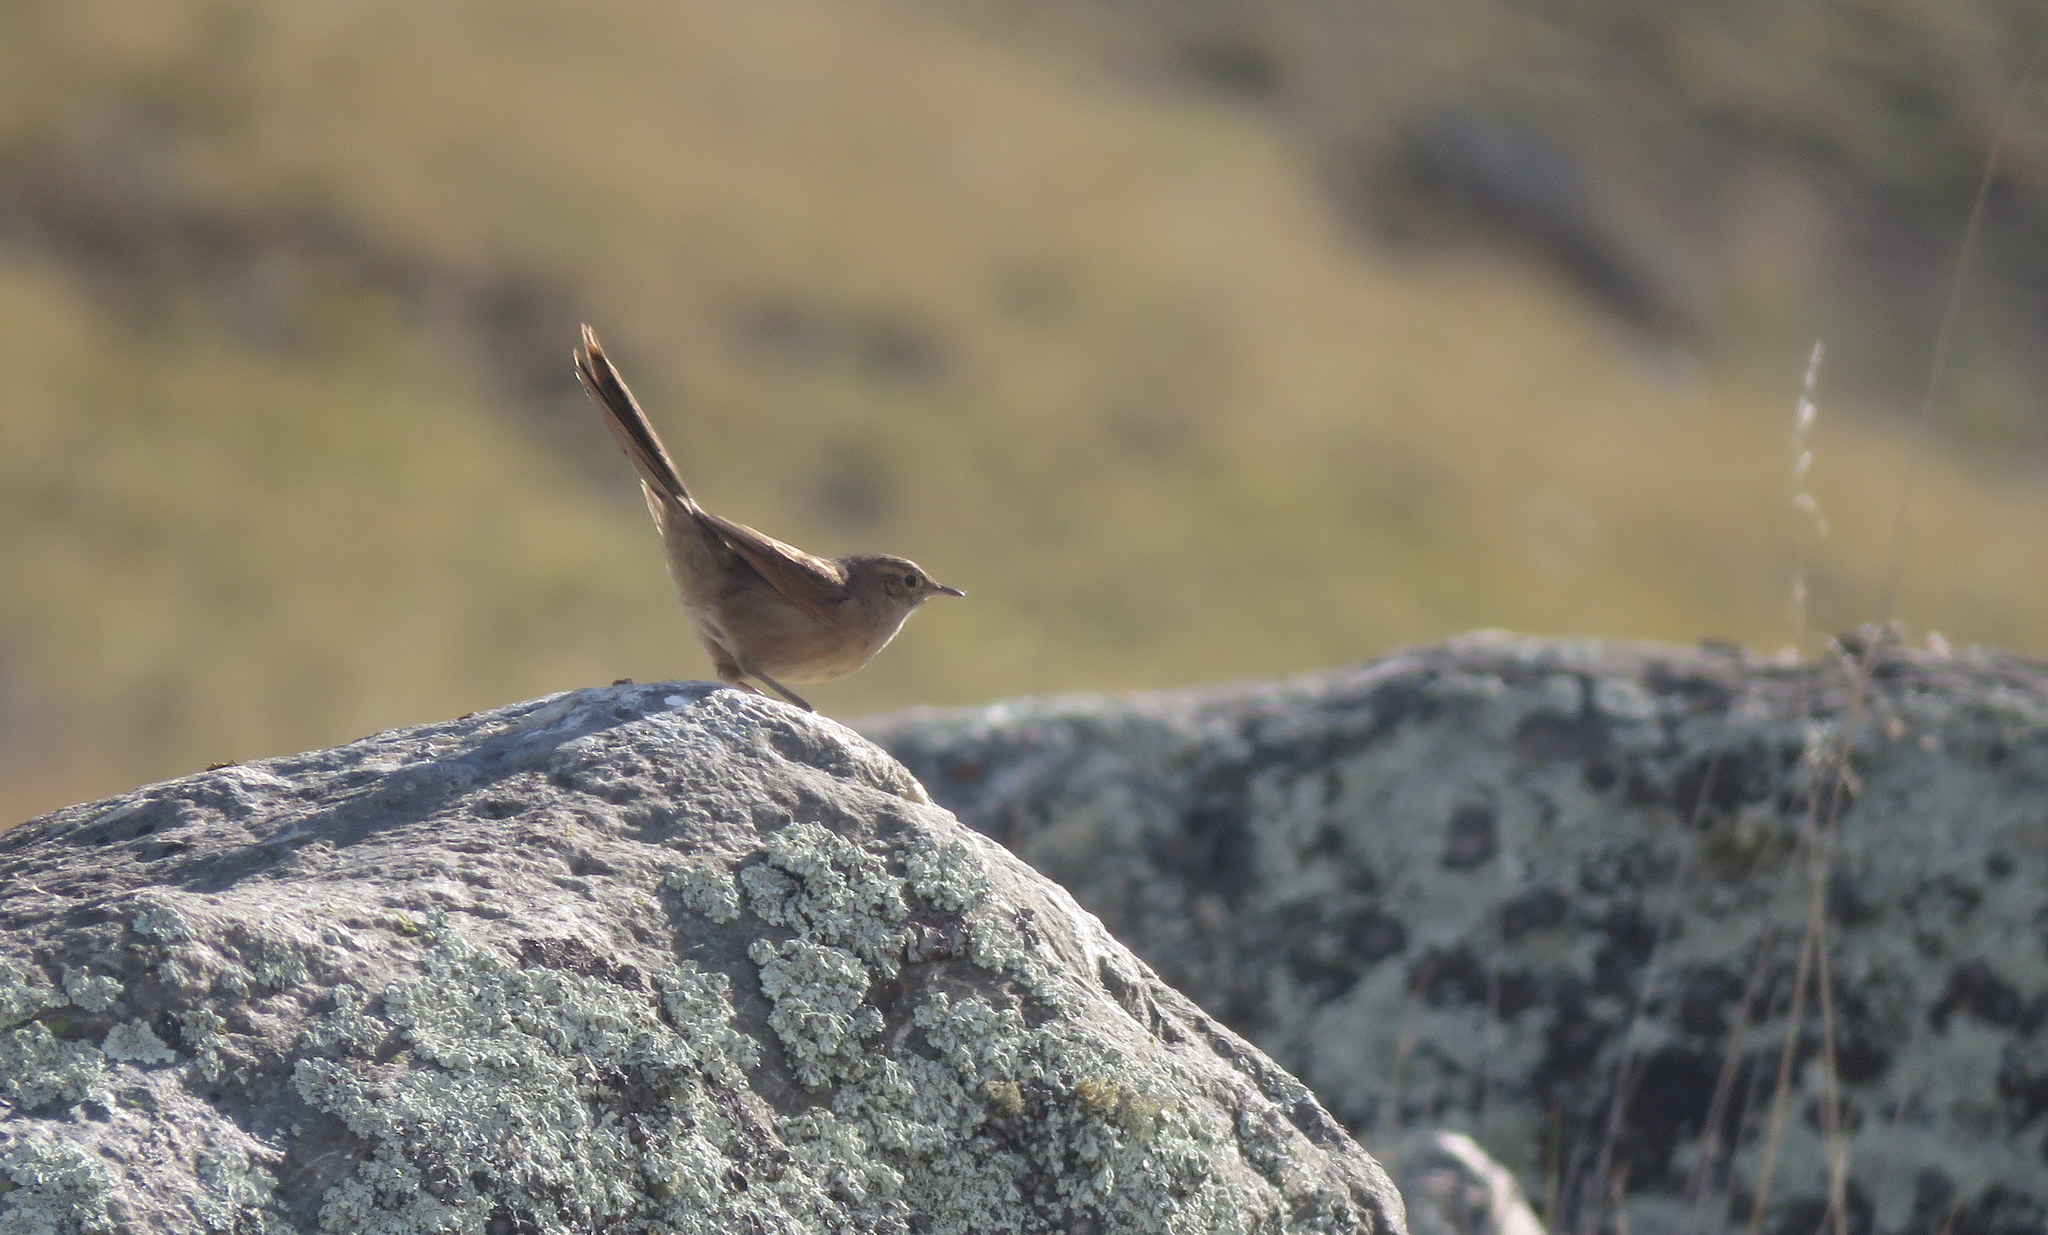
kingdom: Animalia
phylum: Chordata
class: Aves
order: Passeriformes
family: Furnariidae
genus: Asthenes
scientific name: Asthenes wyatti
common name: Streak-backed canastero
